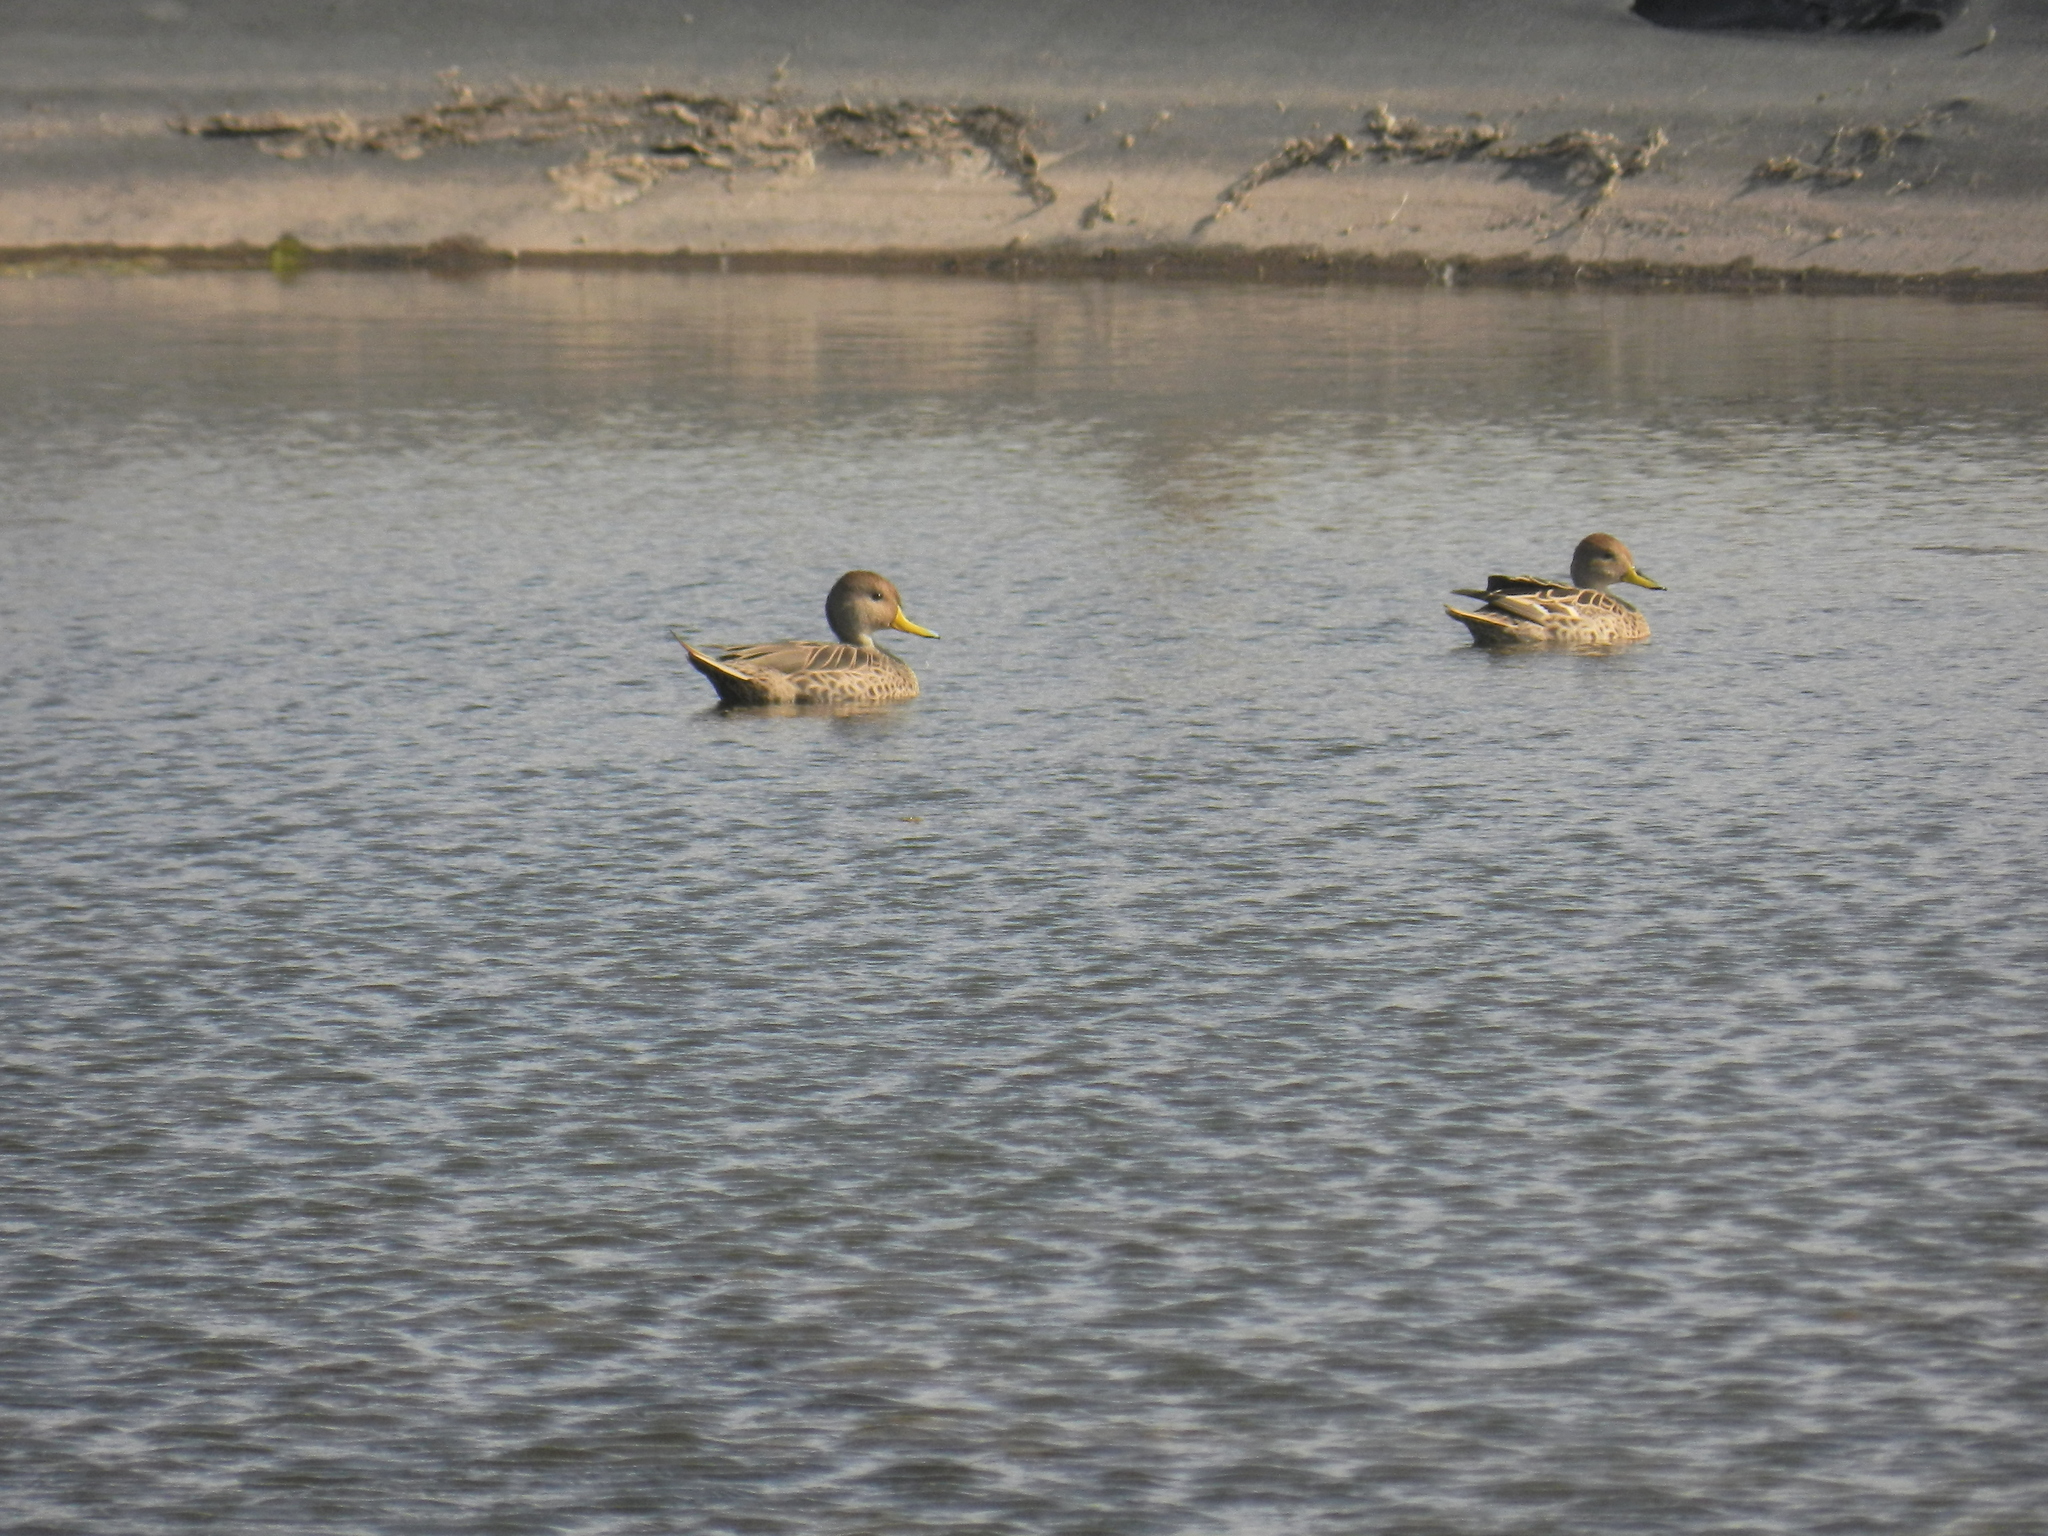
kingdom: Animalia
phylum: Chordata
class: Aves
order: Anseriformes
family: Anatidae
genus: Anas
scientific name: Anas georgica
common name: Yellow-billed pintail
